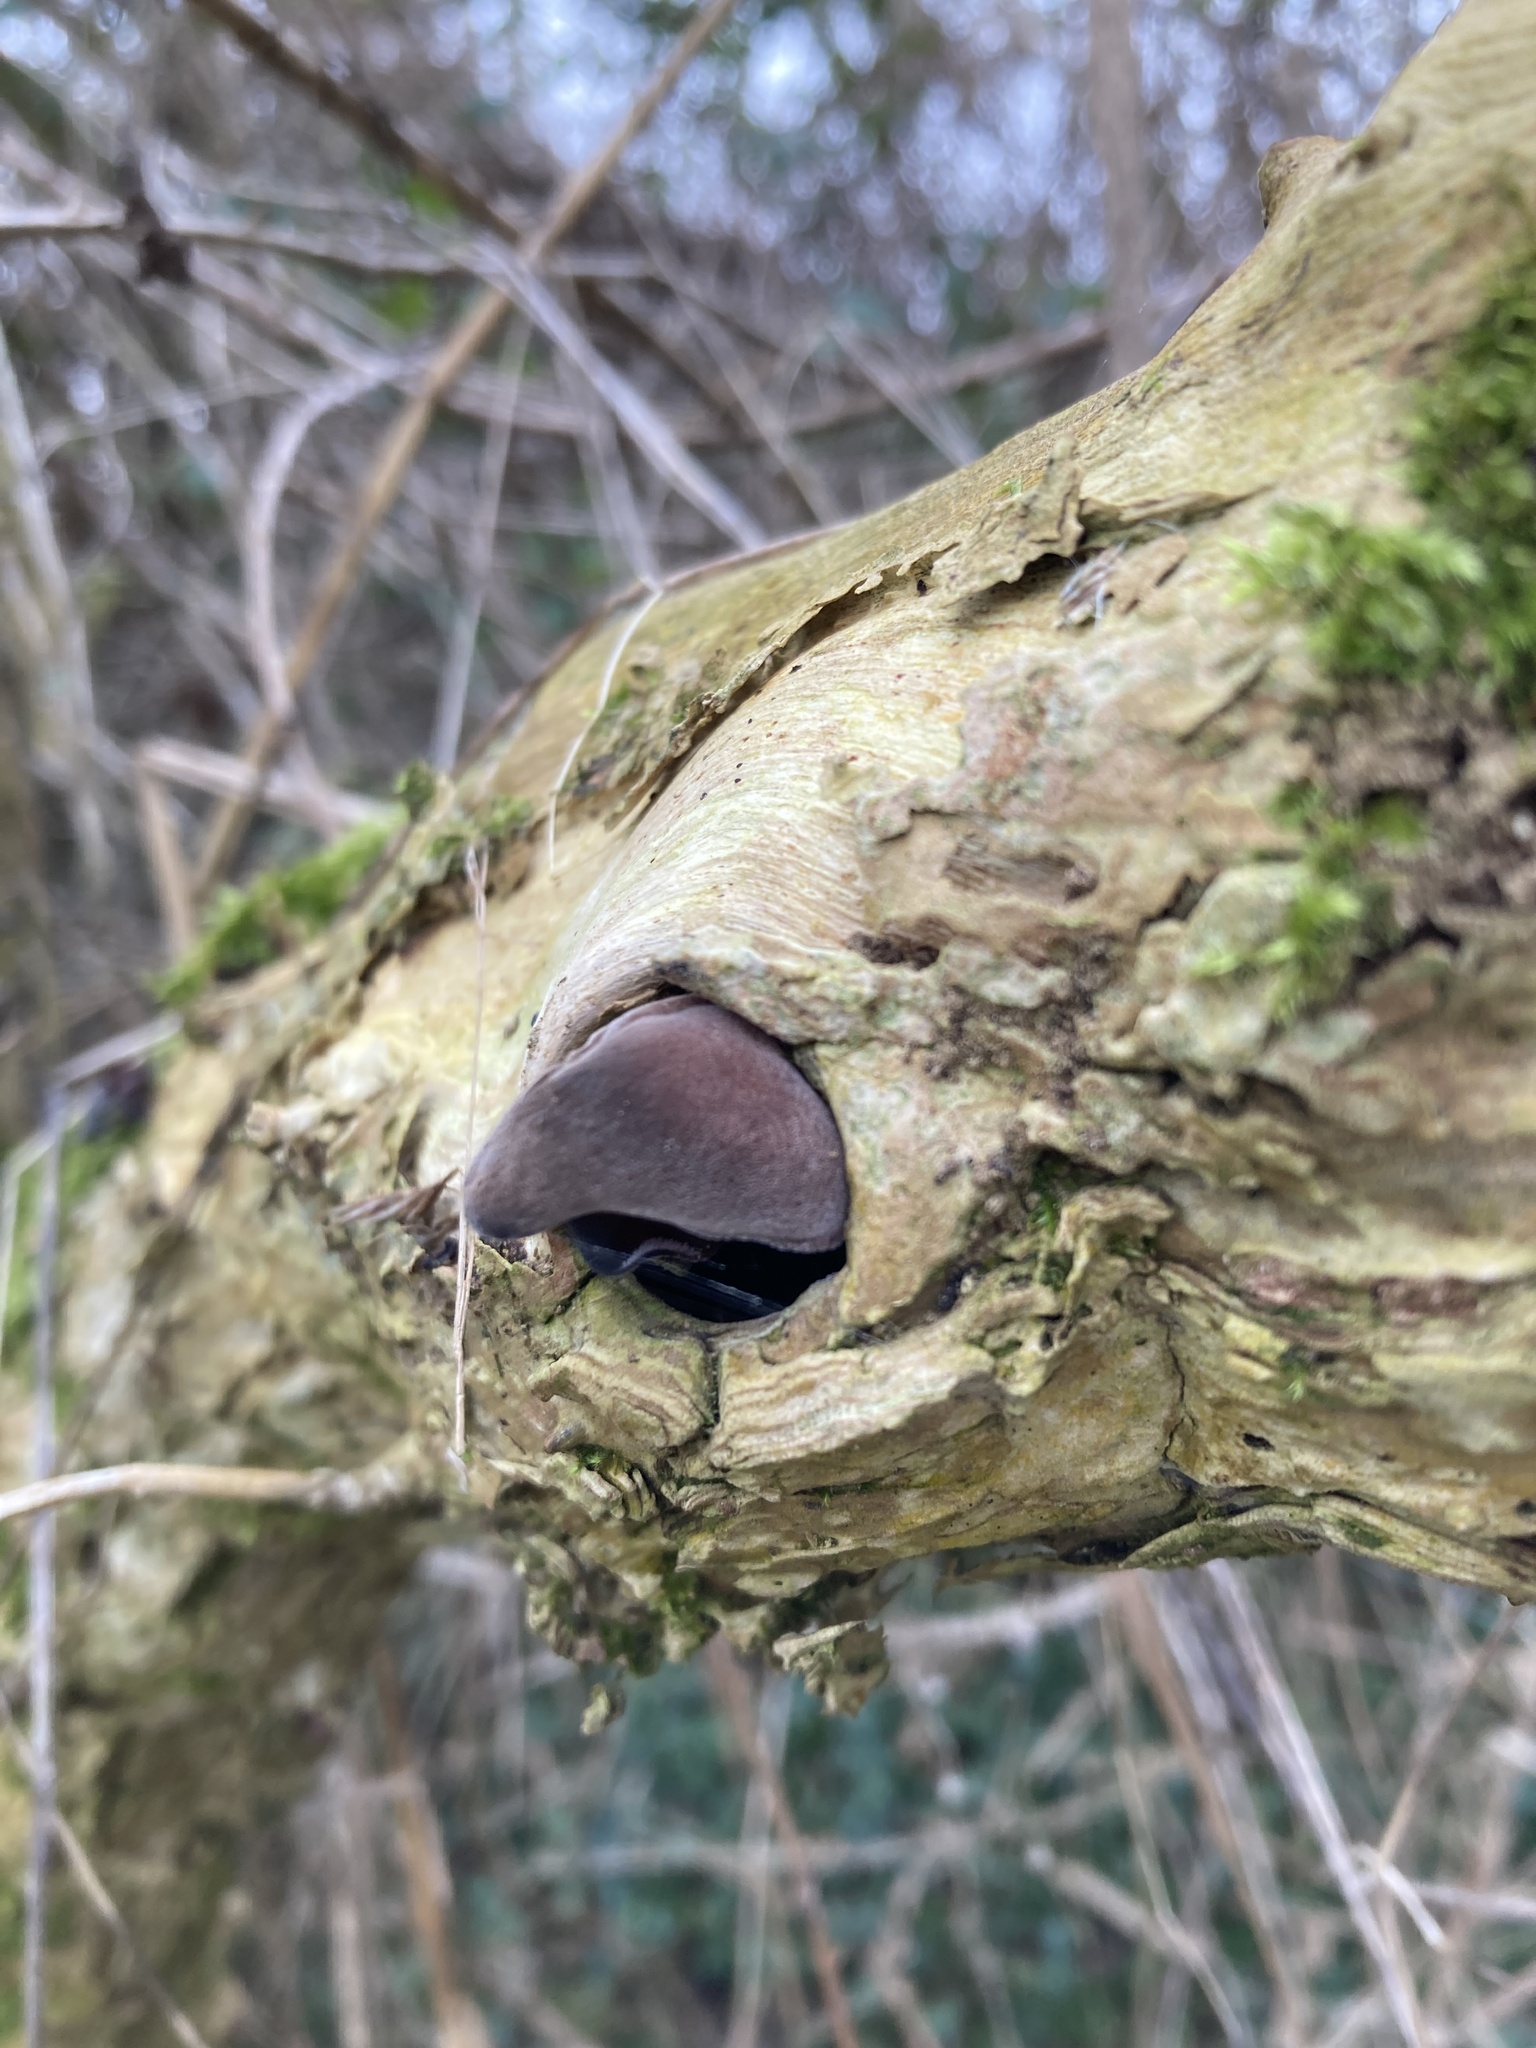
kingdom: Fungi
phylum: Basidiomycota
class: Agaricomycetes
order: Auriculariales
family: Auriculariaceae
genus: Auricularia
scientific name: Auricularia auricula-judae
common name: Jelly ear
